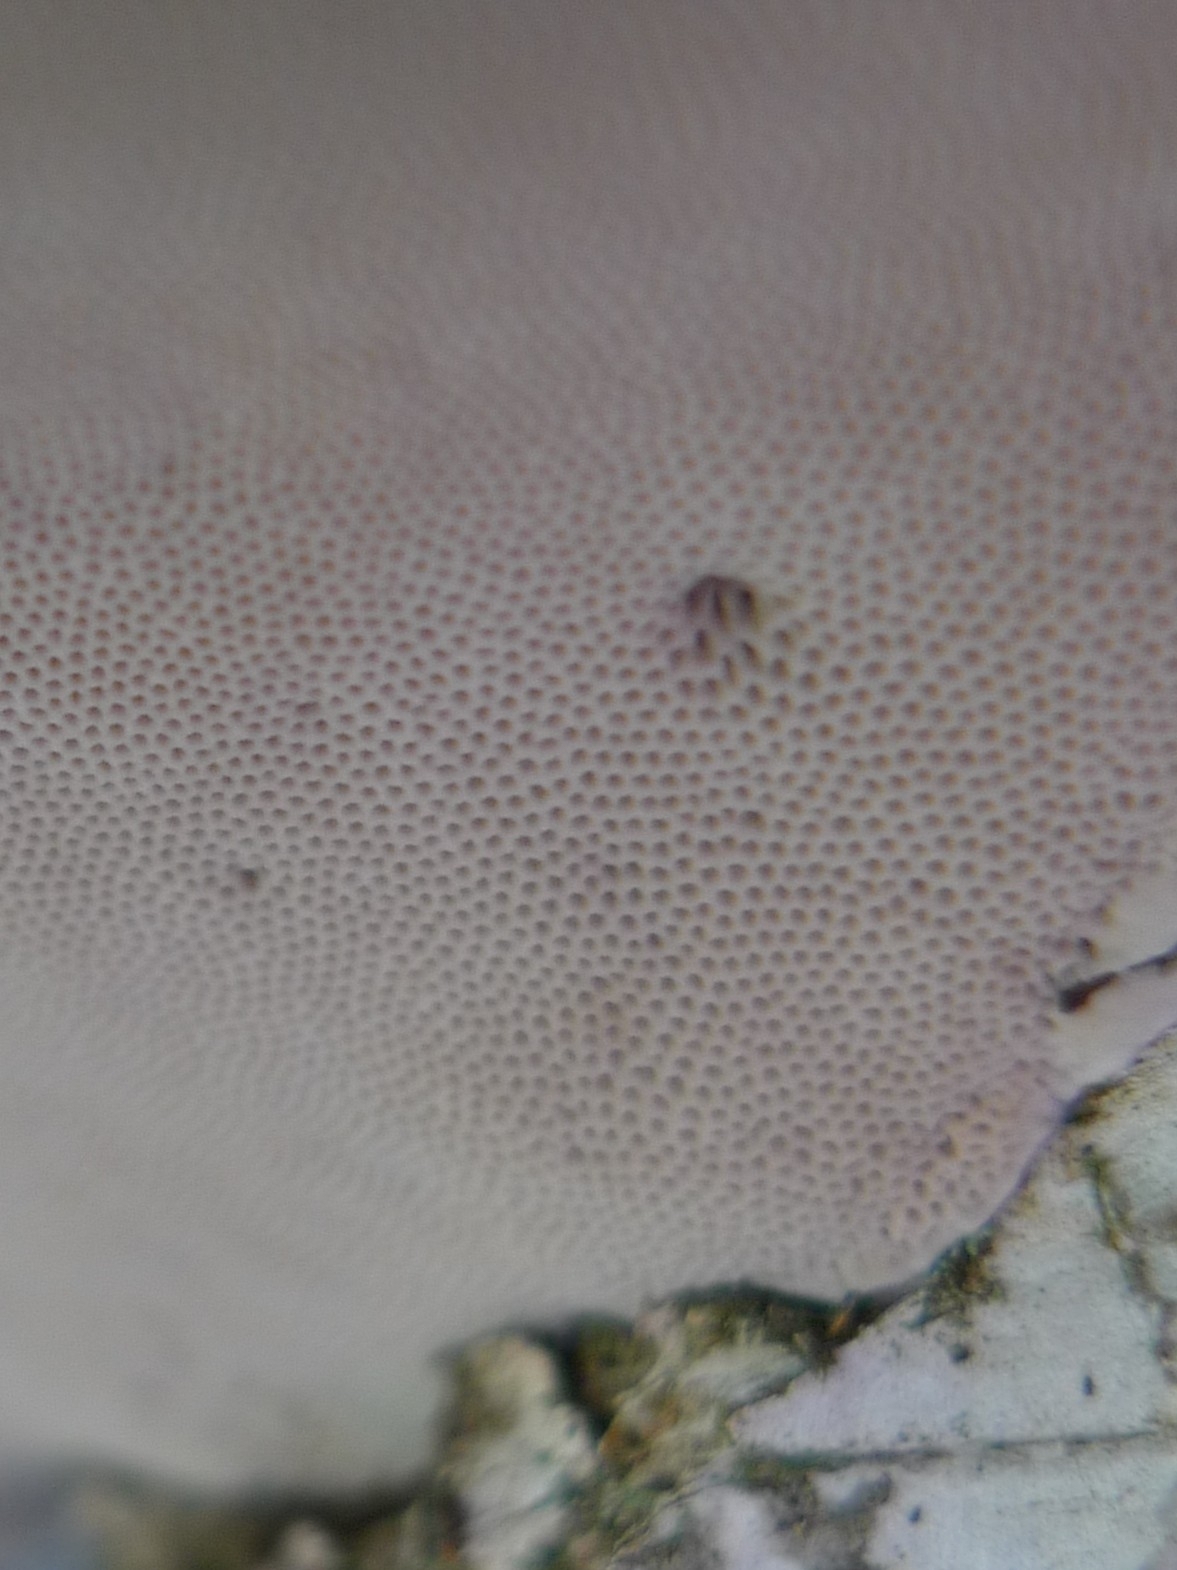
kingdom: Fungi
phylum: Basidiomycota
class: Agaricomycetes
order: Polyporales
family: Polyporaceae
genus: Fomes
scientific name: Fomes fomentarius
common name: Hoof fungus
